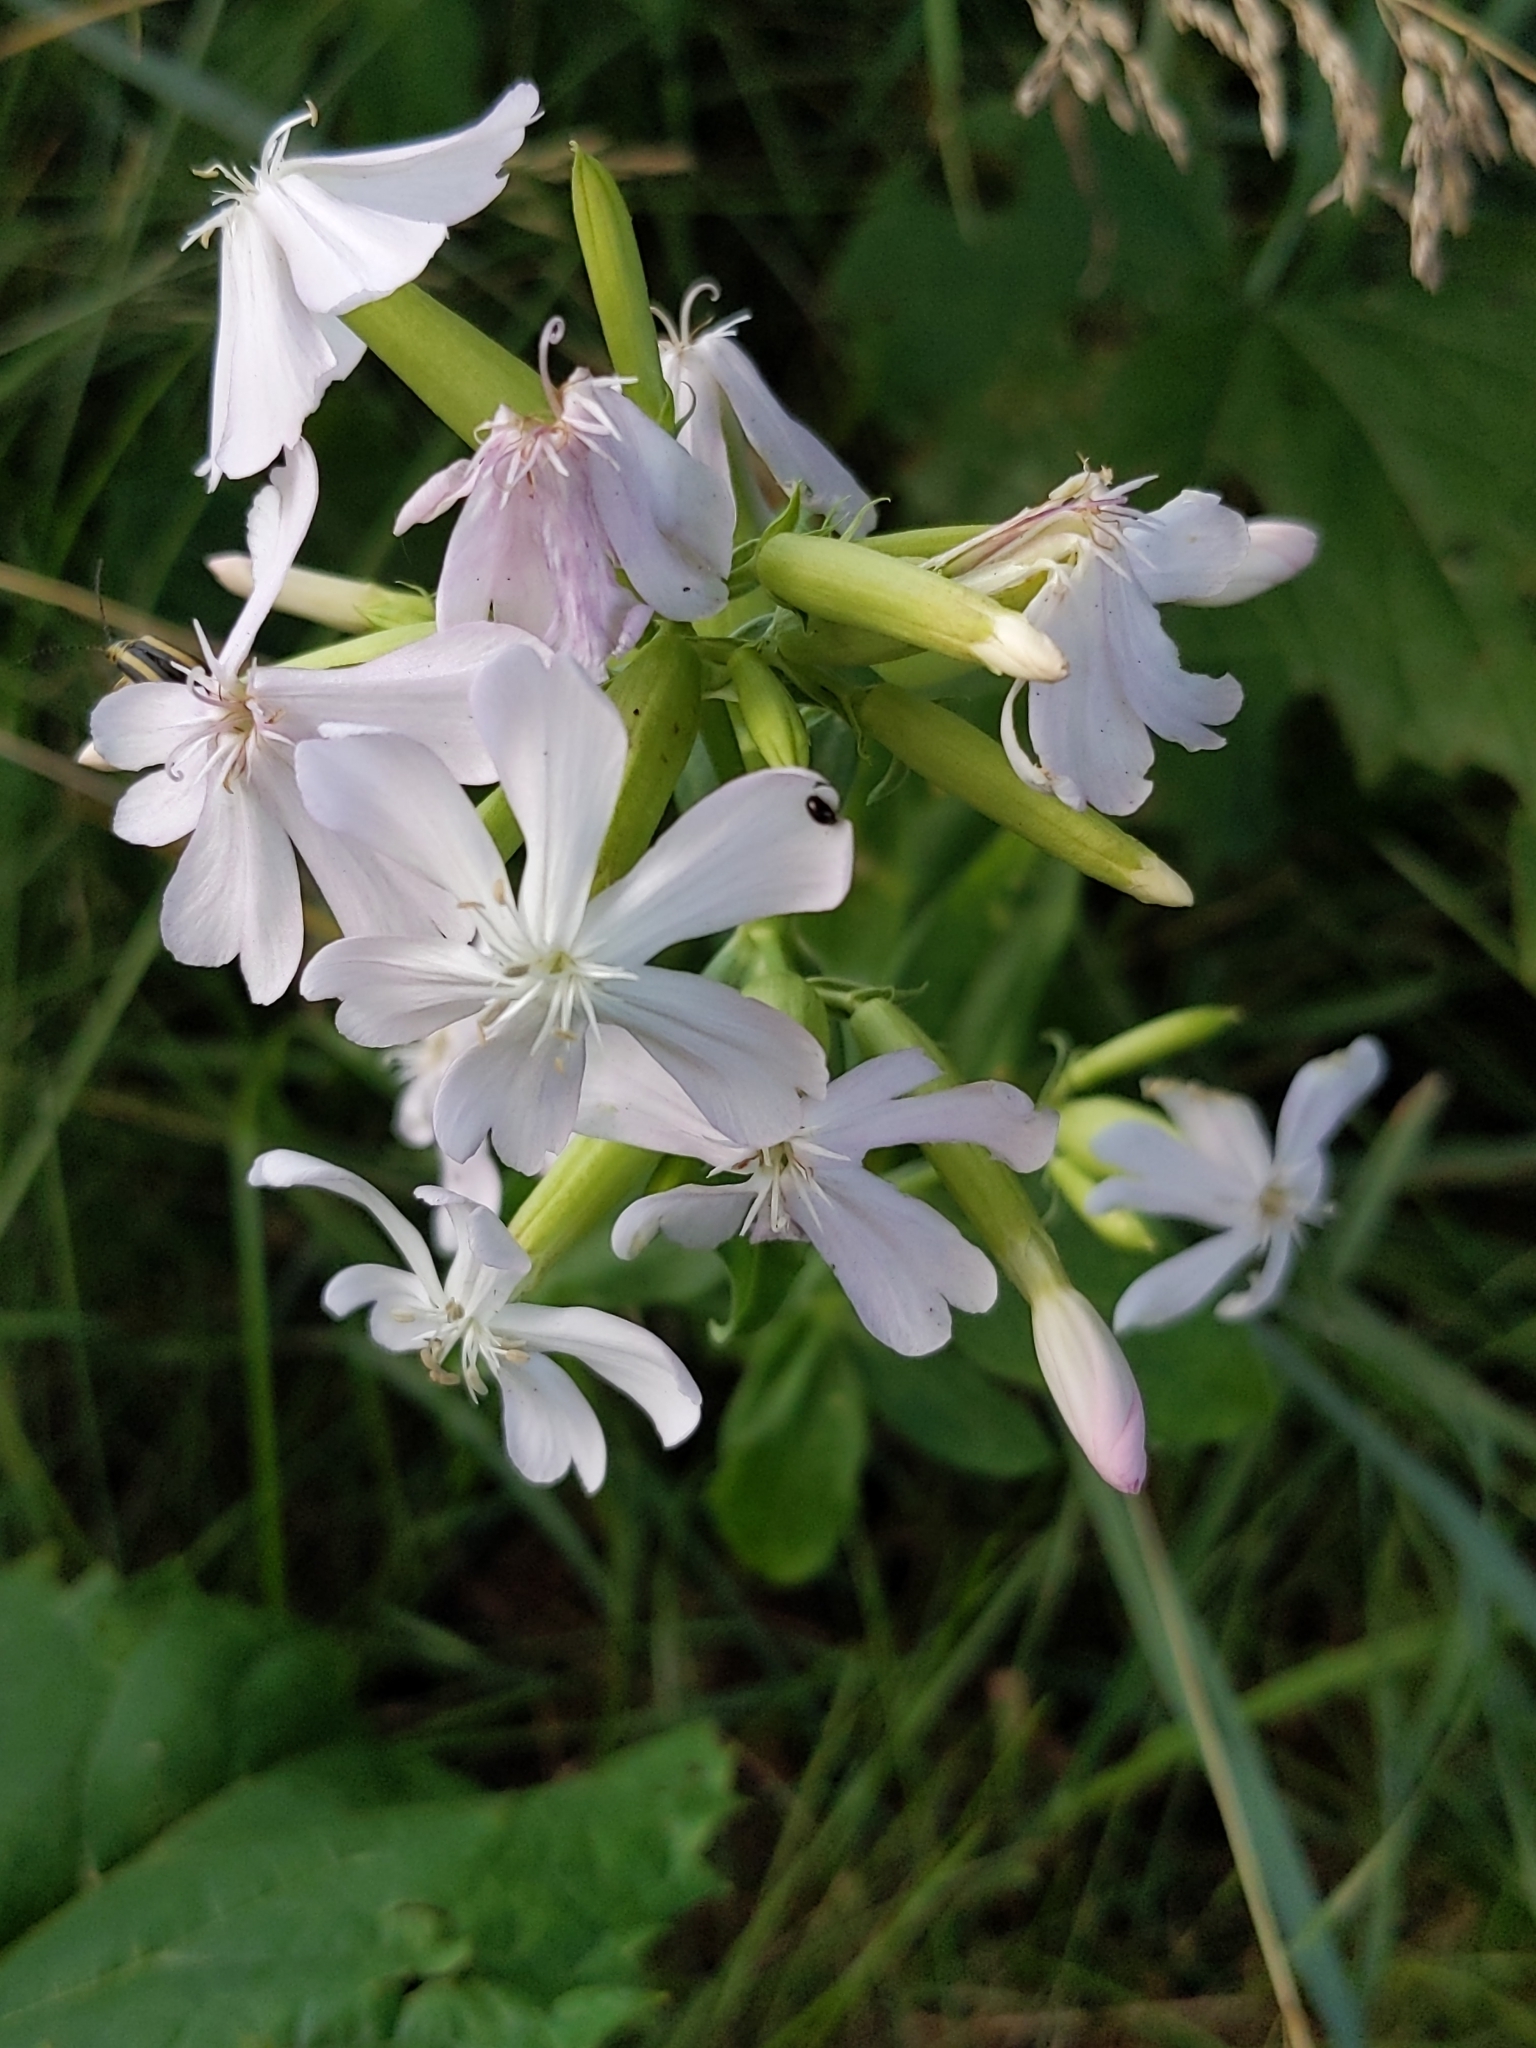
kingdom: Plantae
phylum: Tracheophyta
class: Magnoliopsida
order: Caryophyllales
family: Caryophyllaceae
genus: Saponaria
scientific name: Saponaria officinalis
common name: Soapwort
